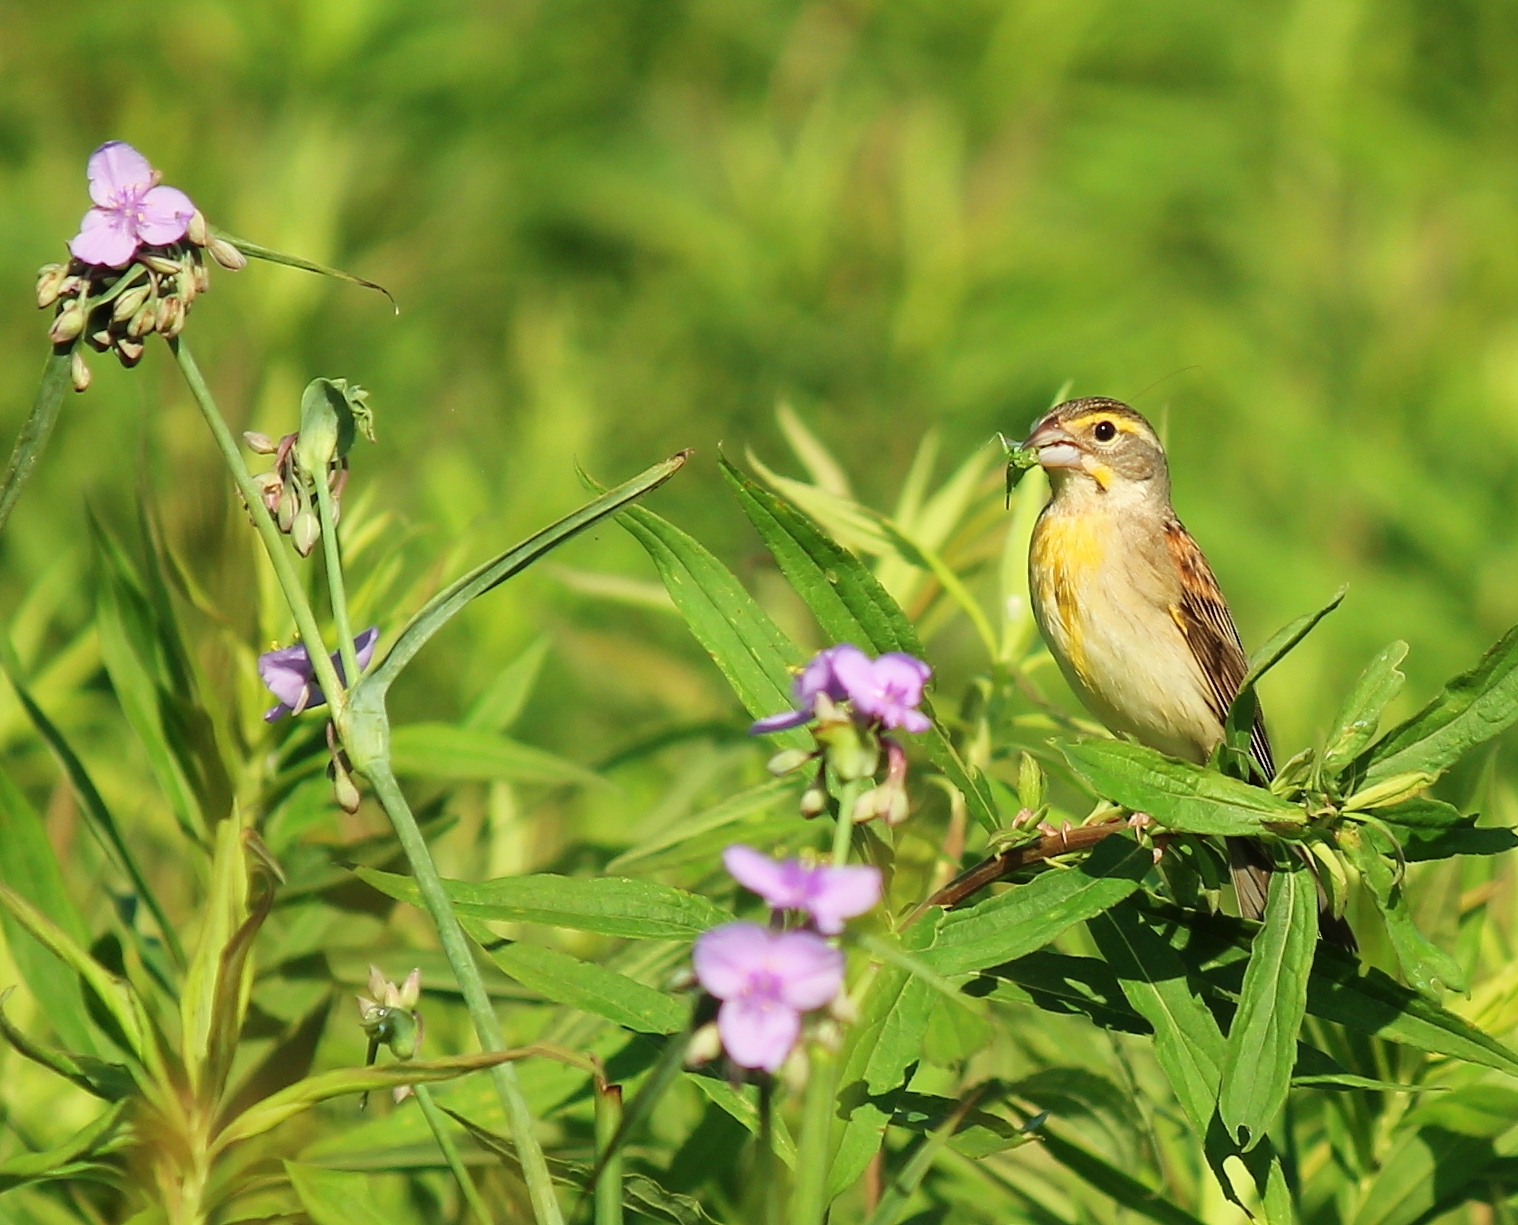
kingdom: Animalia
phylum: Chordata
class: Aves
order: Passeriformes
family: Cardinalidae
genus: Spiza
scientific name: Spiza americana
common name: Dickcissel
